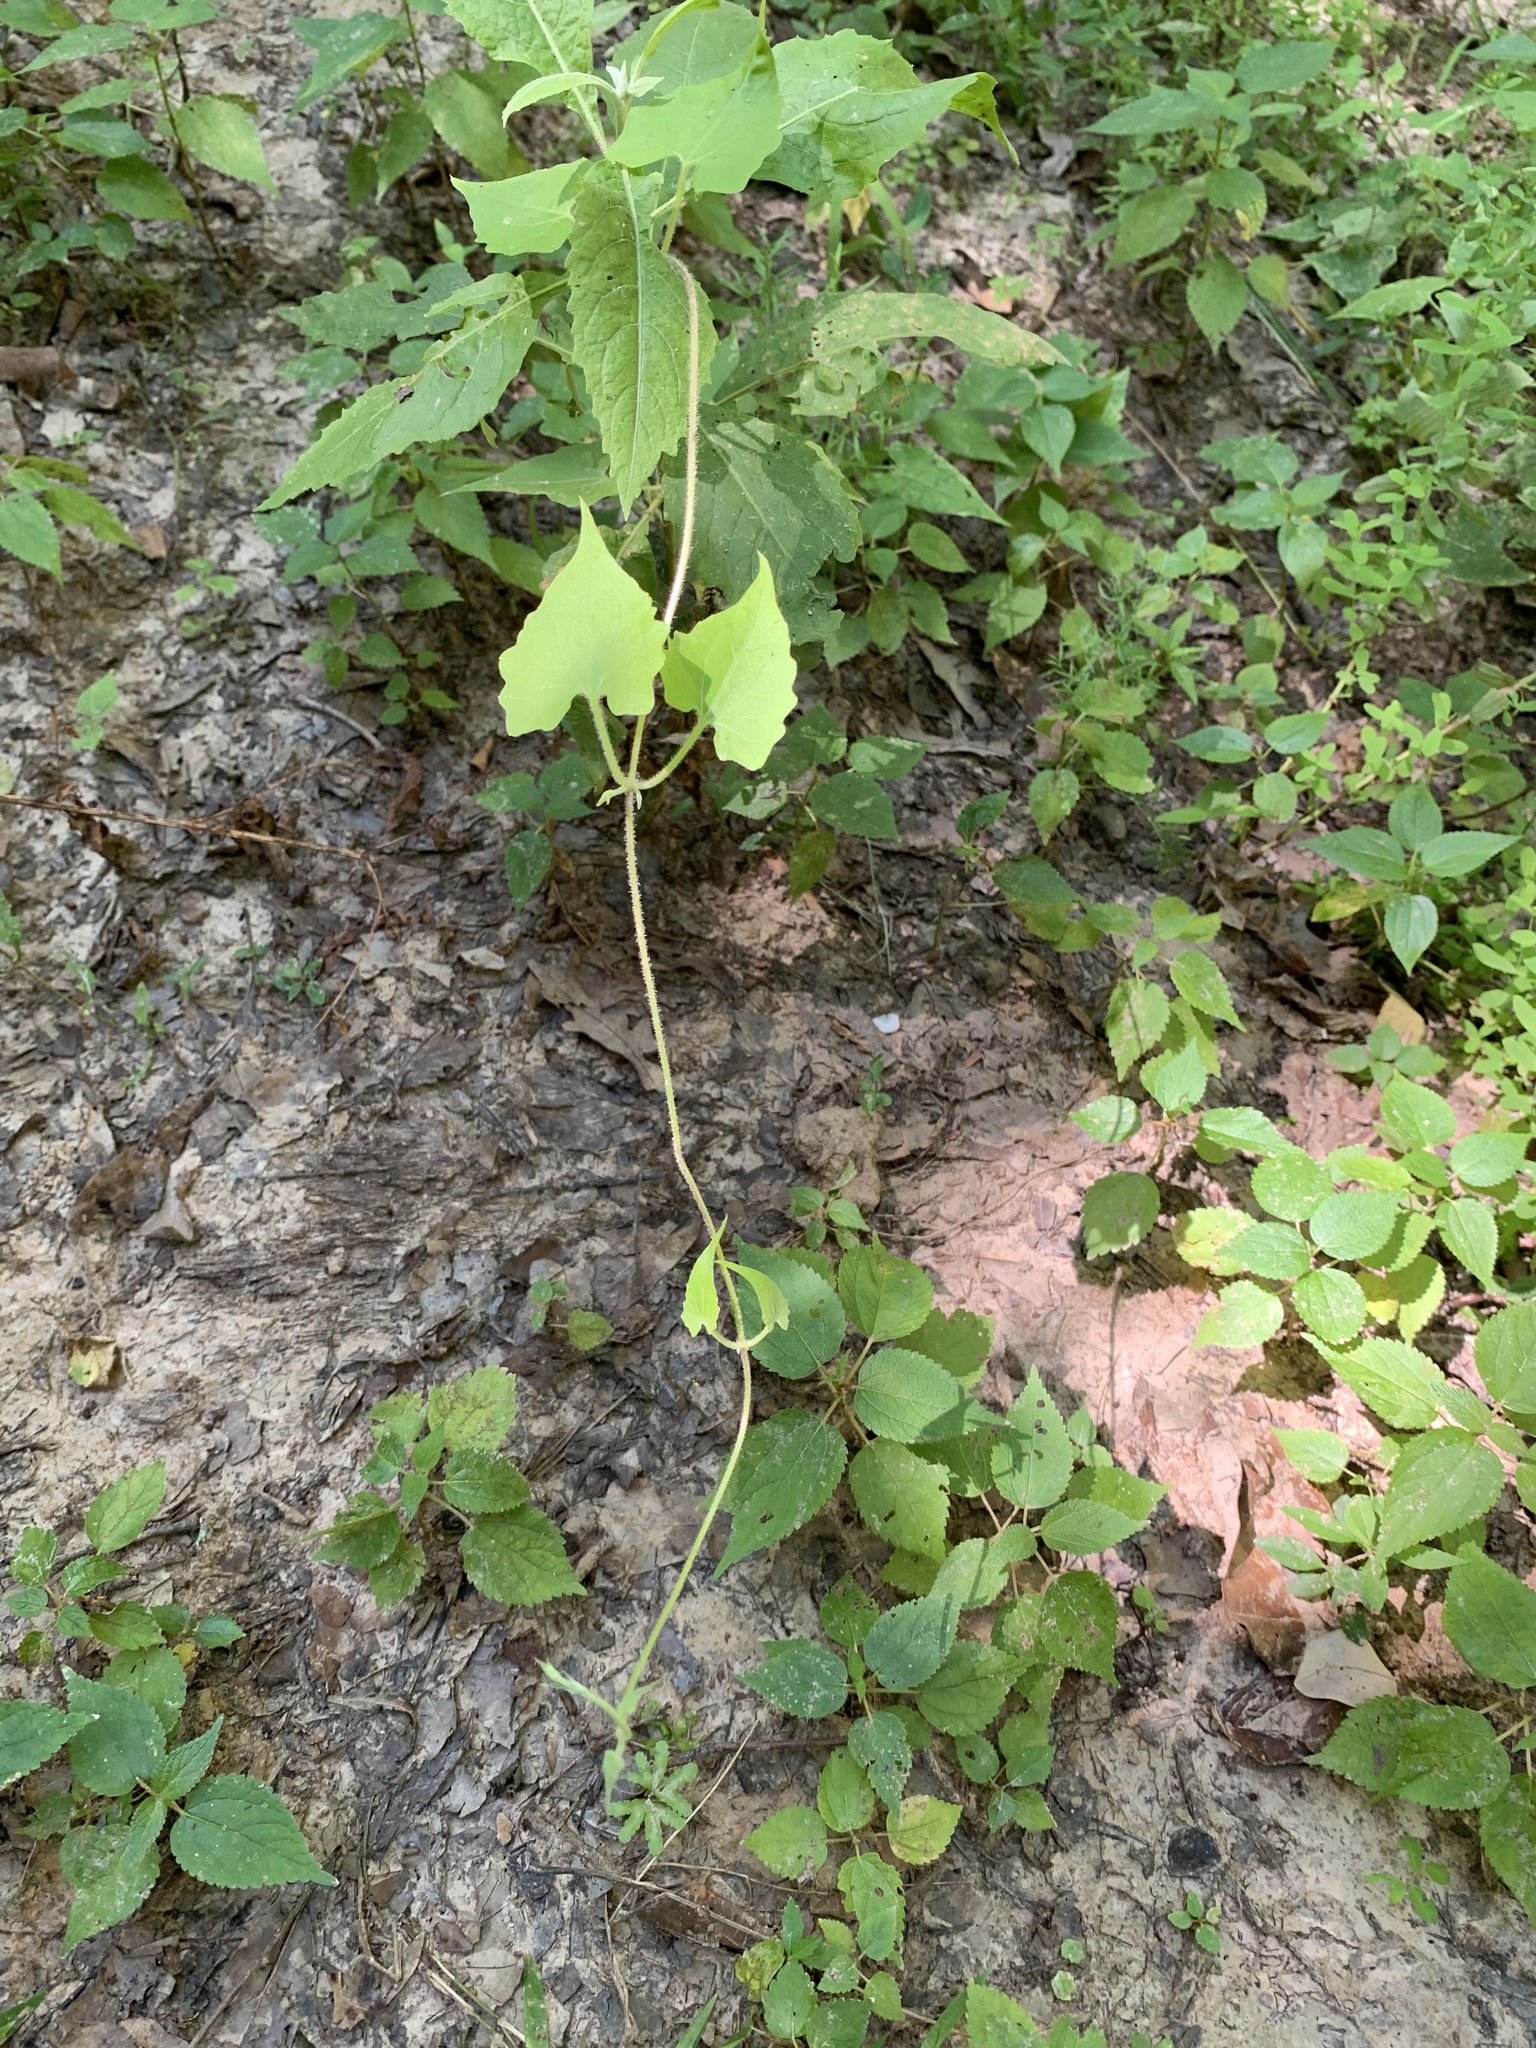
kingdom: Plantae
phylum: Tracheophyta
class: Magnoliopsida
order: Asterales
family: Asteraceae
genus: Mikania
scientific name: Mikania cordifolia
